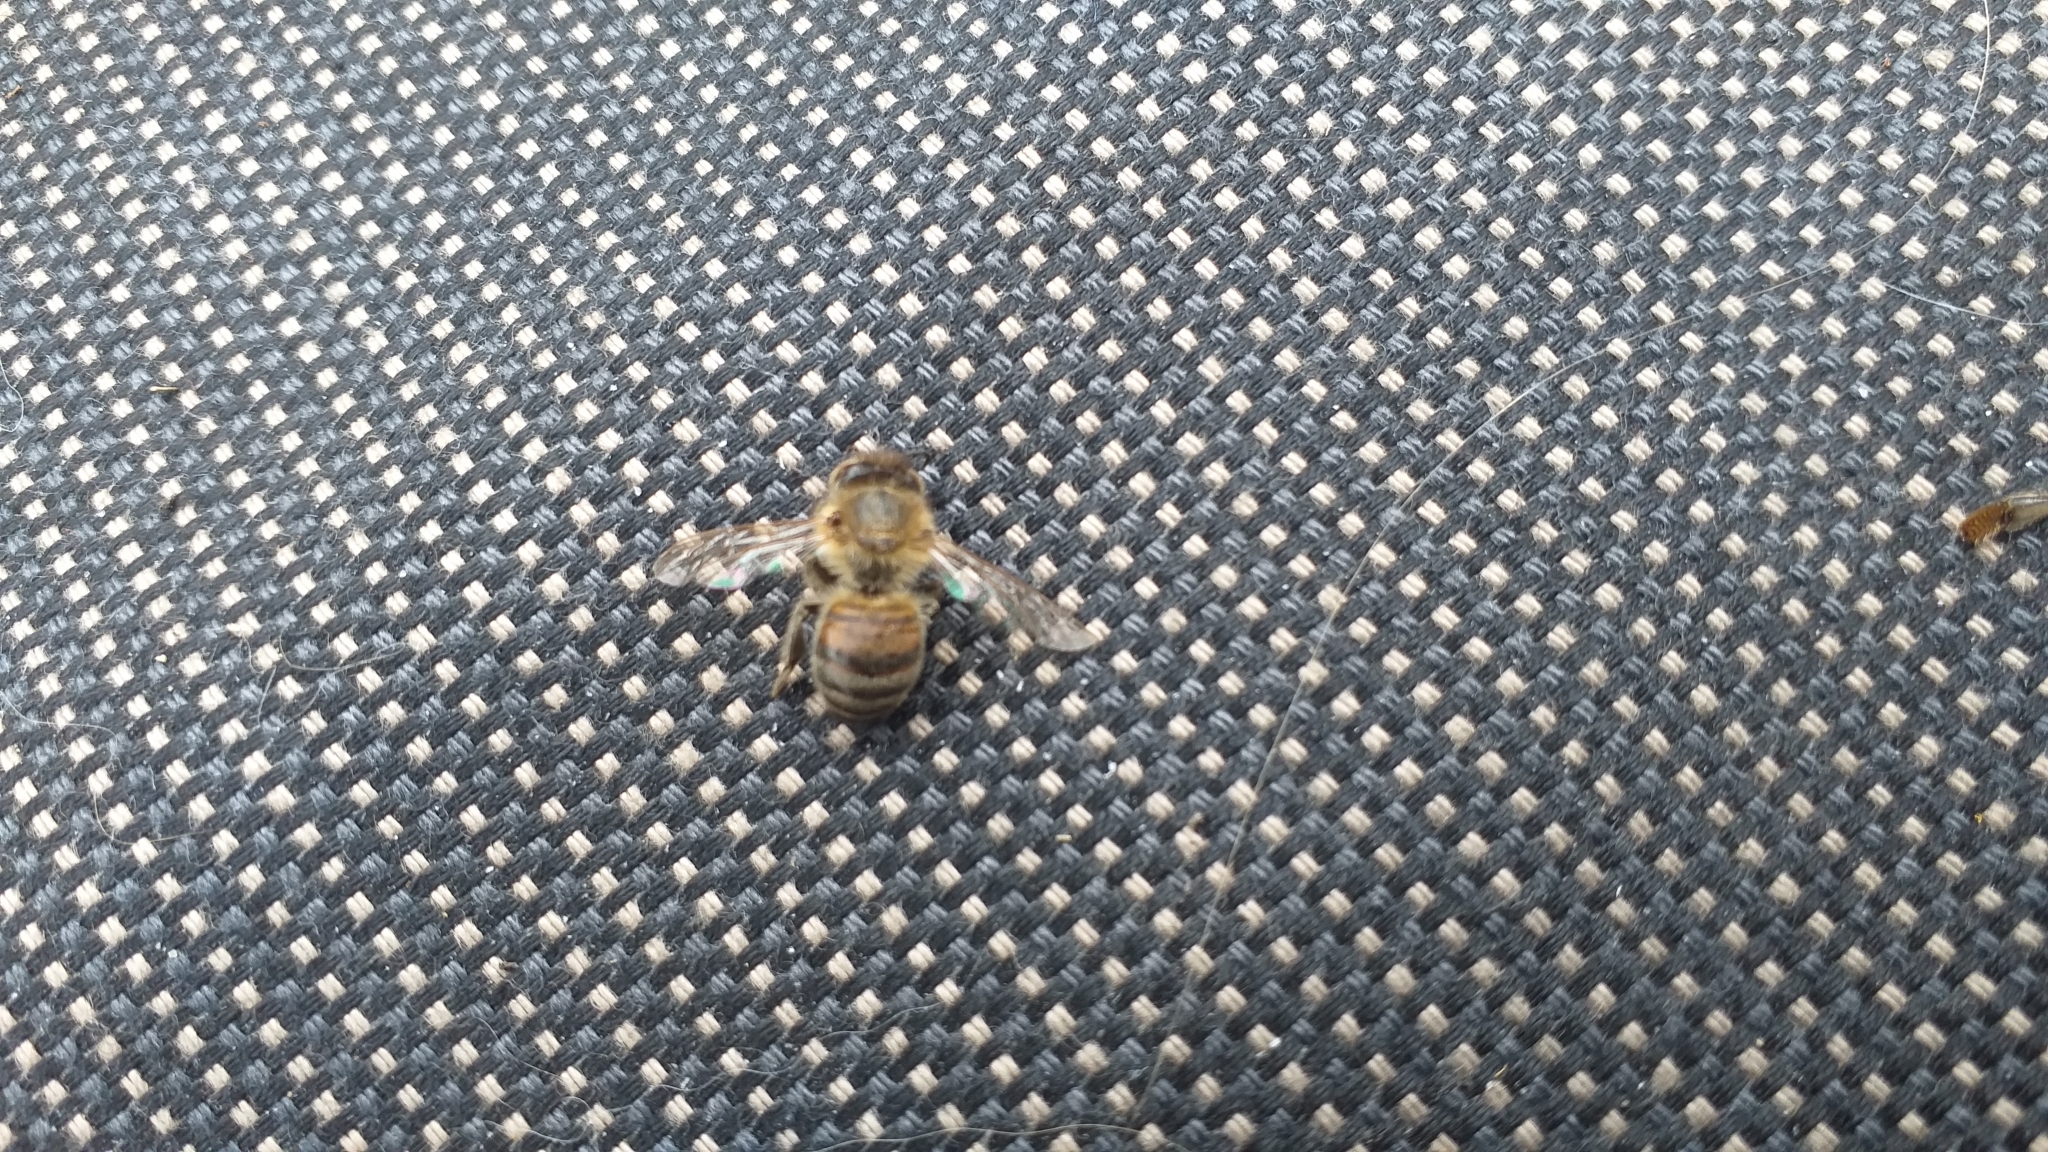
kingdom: Animalia
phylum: Arthropoda
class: Insecta
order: Hymenoptera
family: Apidae
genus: Apis
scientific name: Apis mellifera
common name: Honey bee
